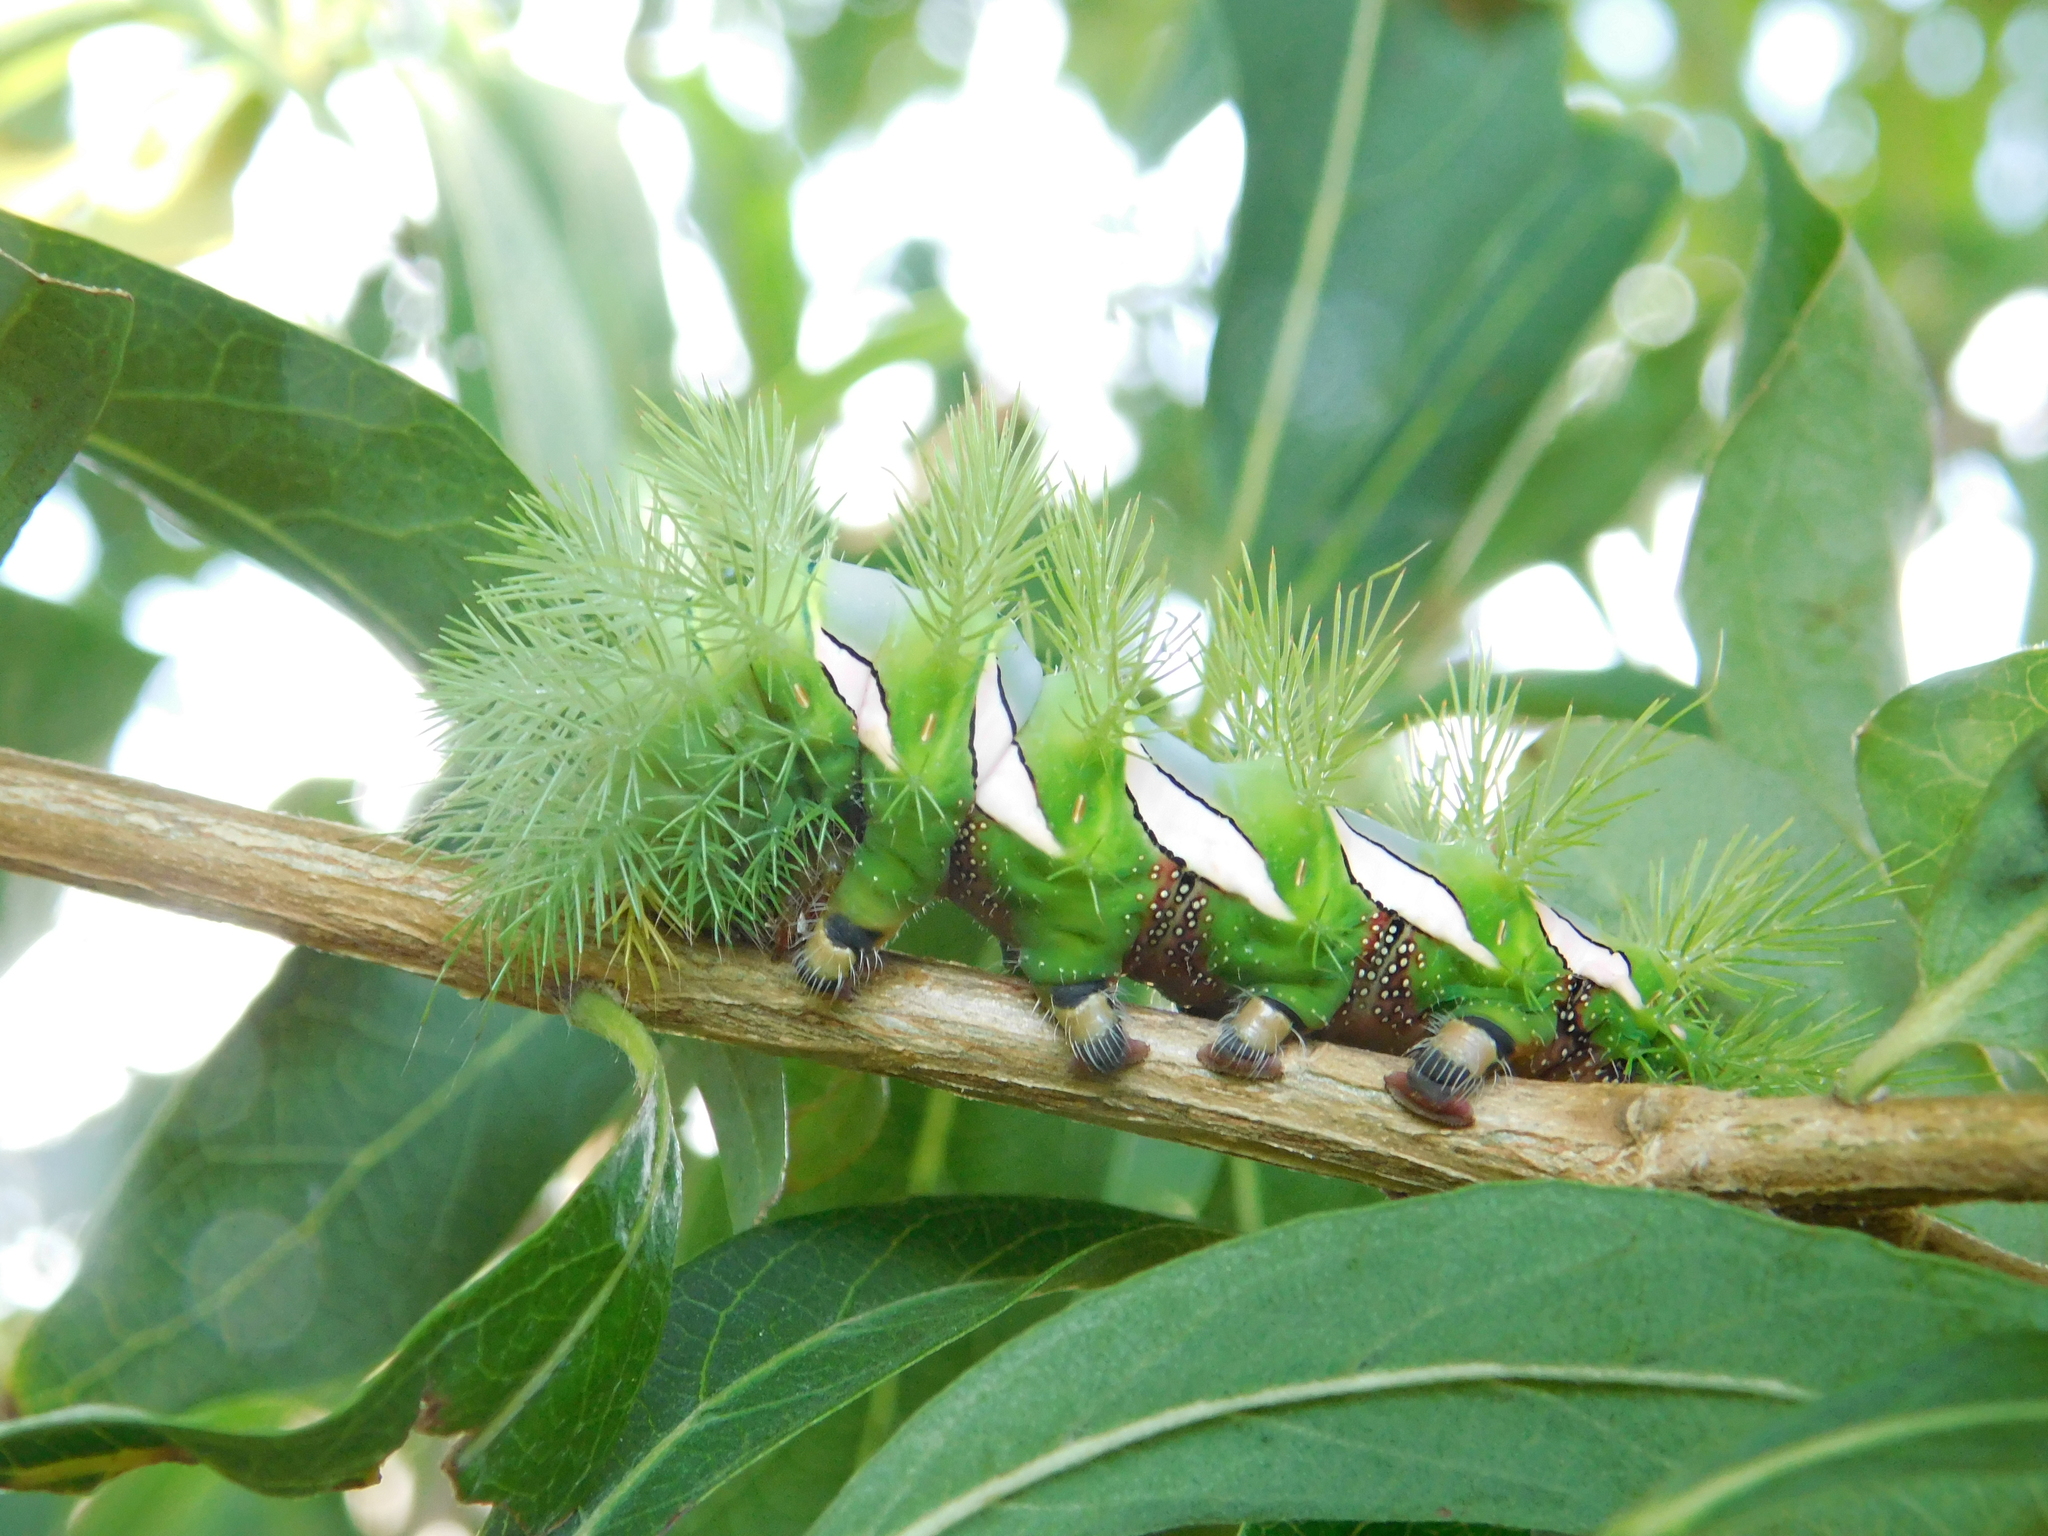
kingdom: Animalia
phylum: Arthropoda
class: Insecta
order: Lepidoptera
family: Saturniidae
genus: Automeris
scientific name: Automeris naranja
